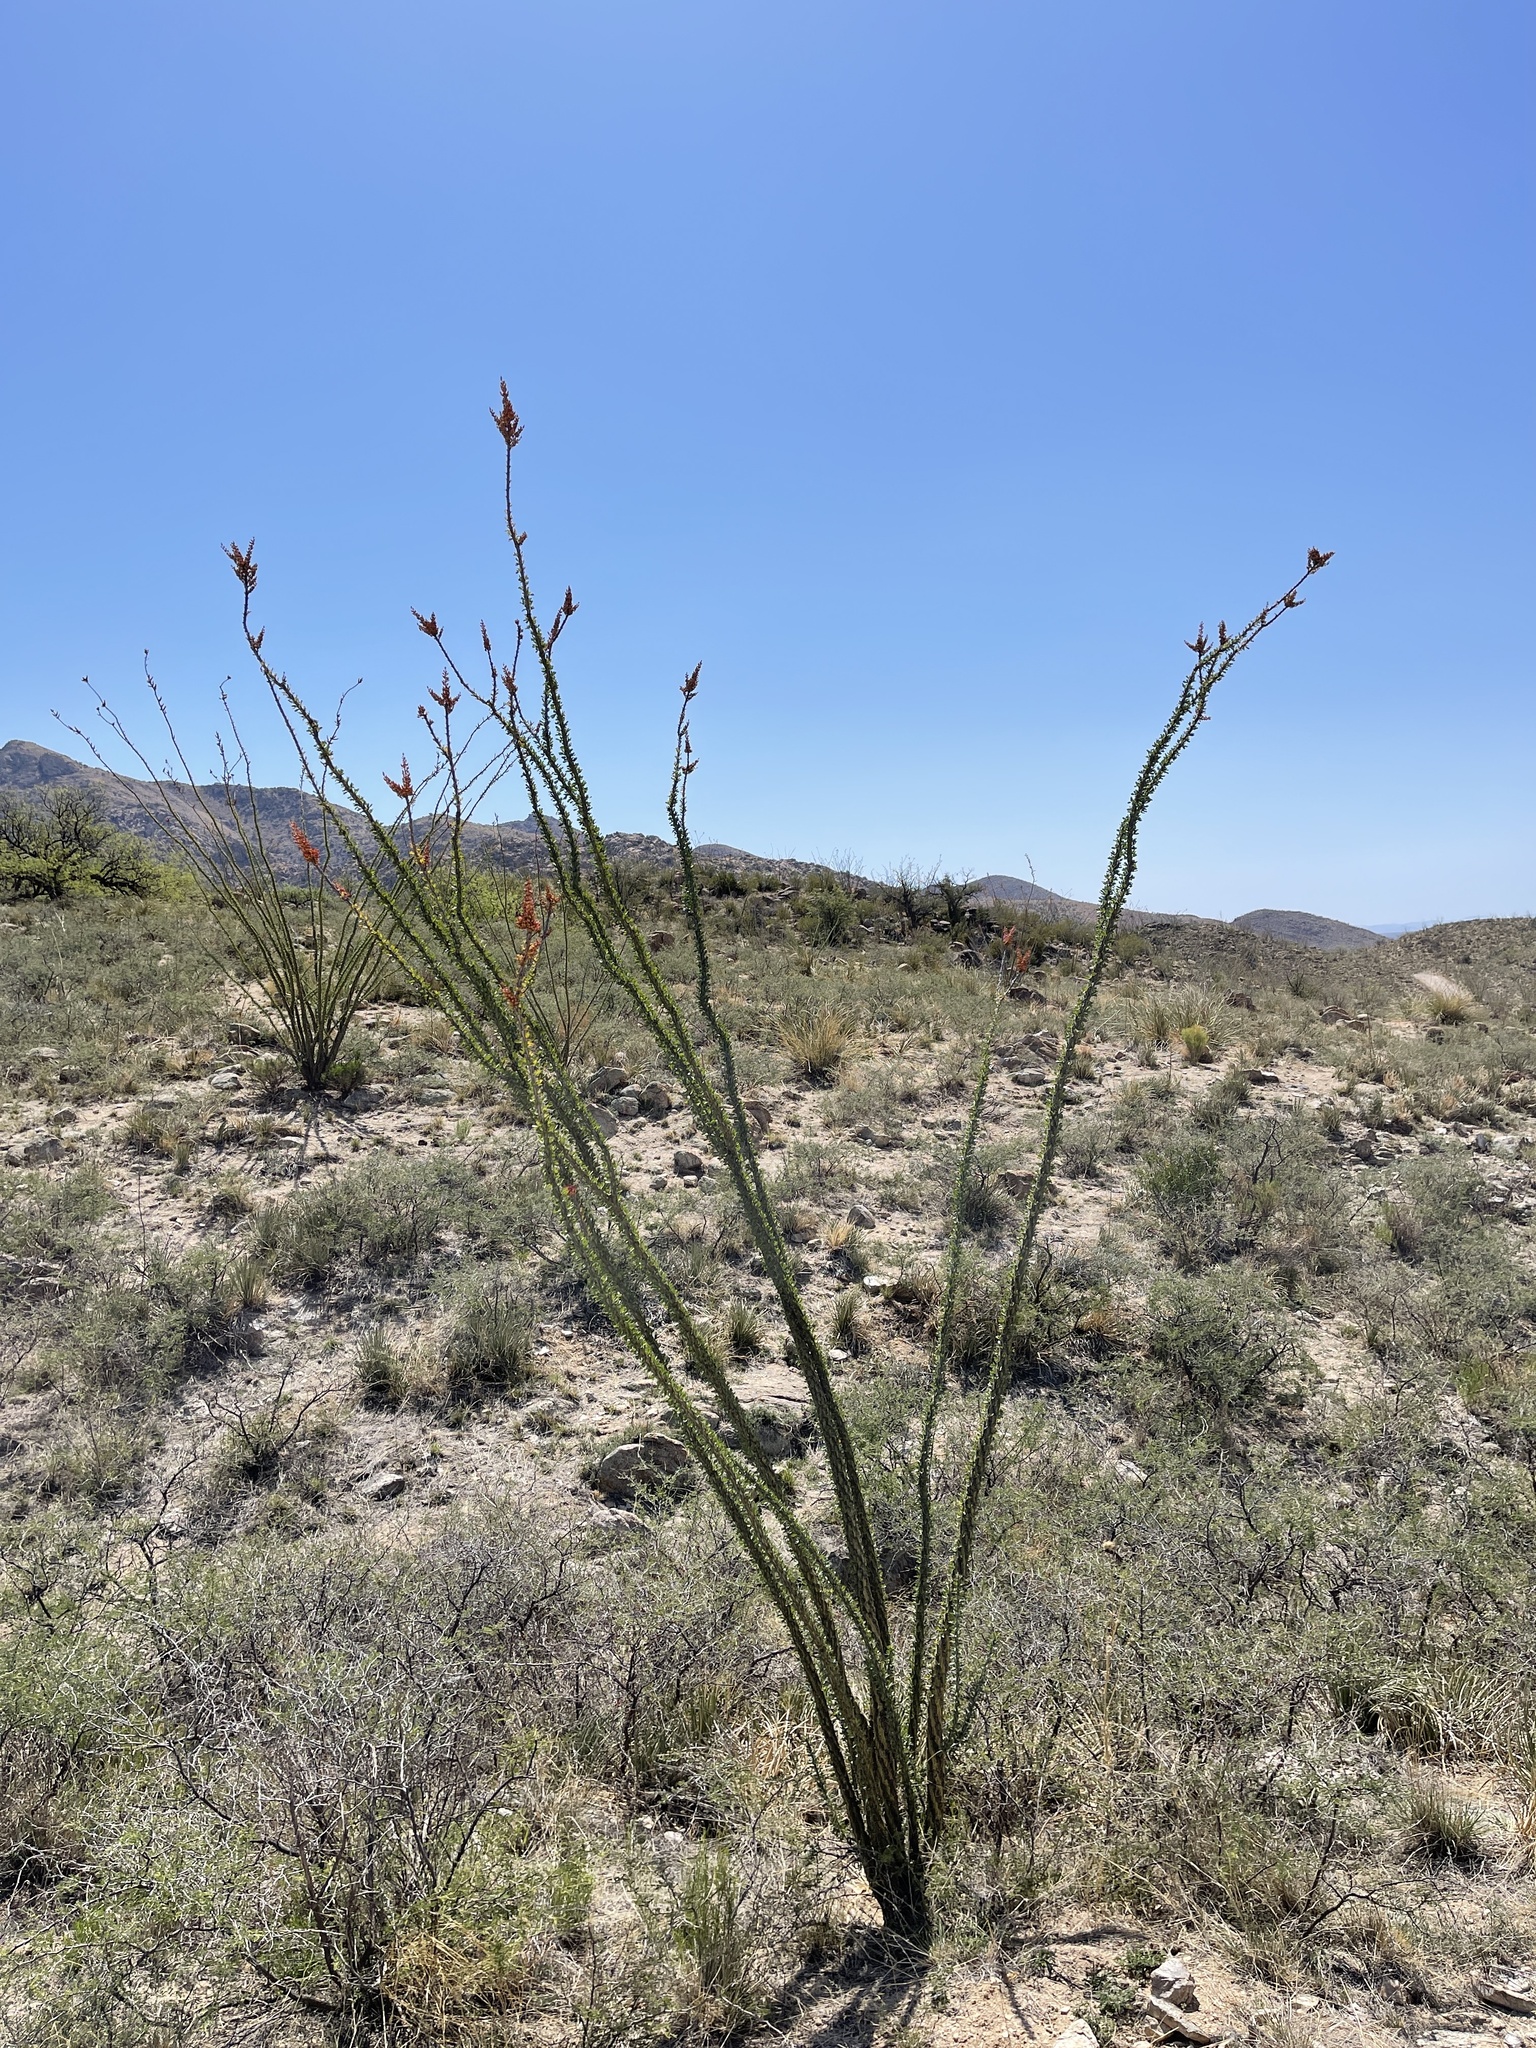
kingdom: Plantae
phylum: Tracheophyta
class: Magnoliopsida
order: Ericales
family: Fouquieriaceae
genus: Fouquieria
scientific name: Fouquieria splendens
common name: Vine-cactus
